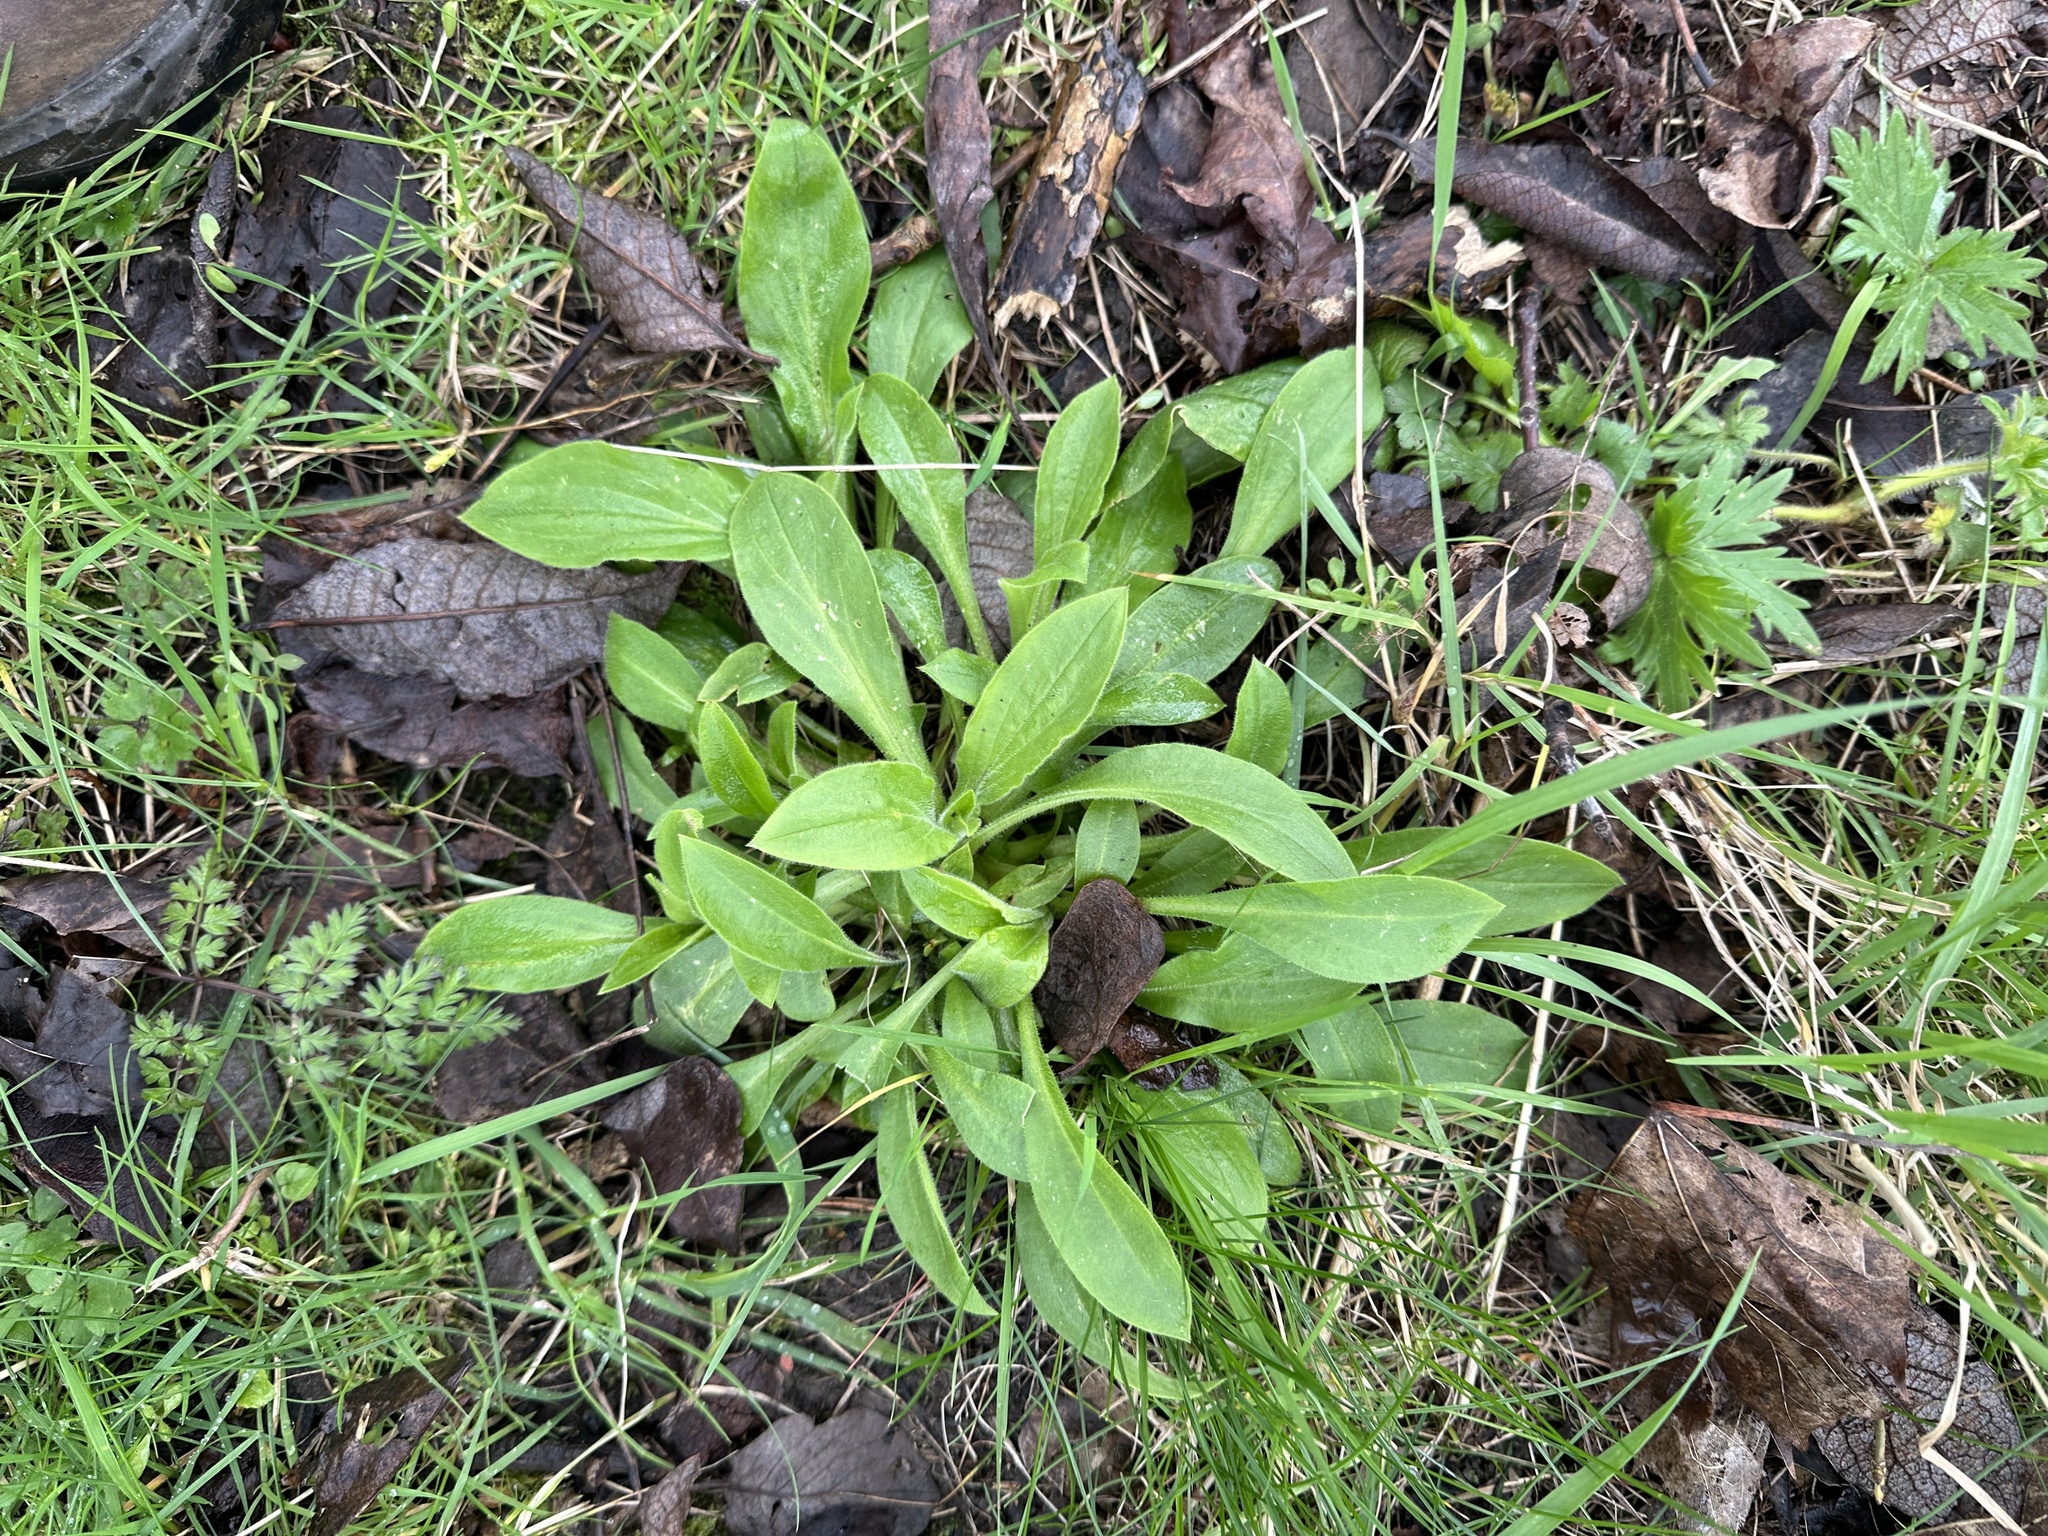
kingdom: Plantae
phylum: Tracheophyta
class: Magnoliopsida
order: Caryophyllales
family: Caryophyllaceae
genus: Silene
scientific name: Silene dioica
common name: Red campion
